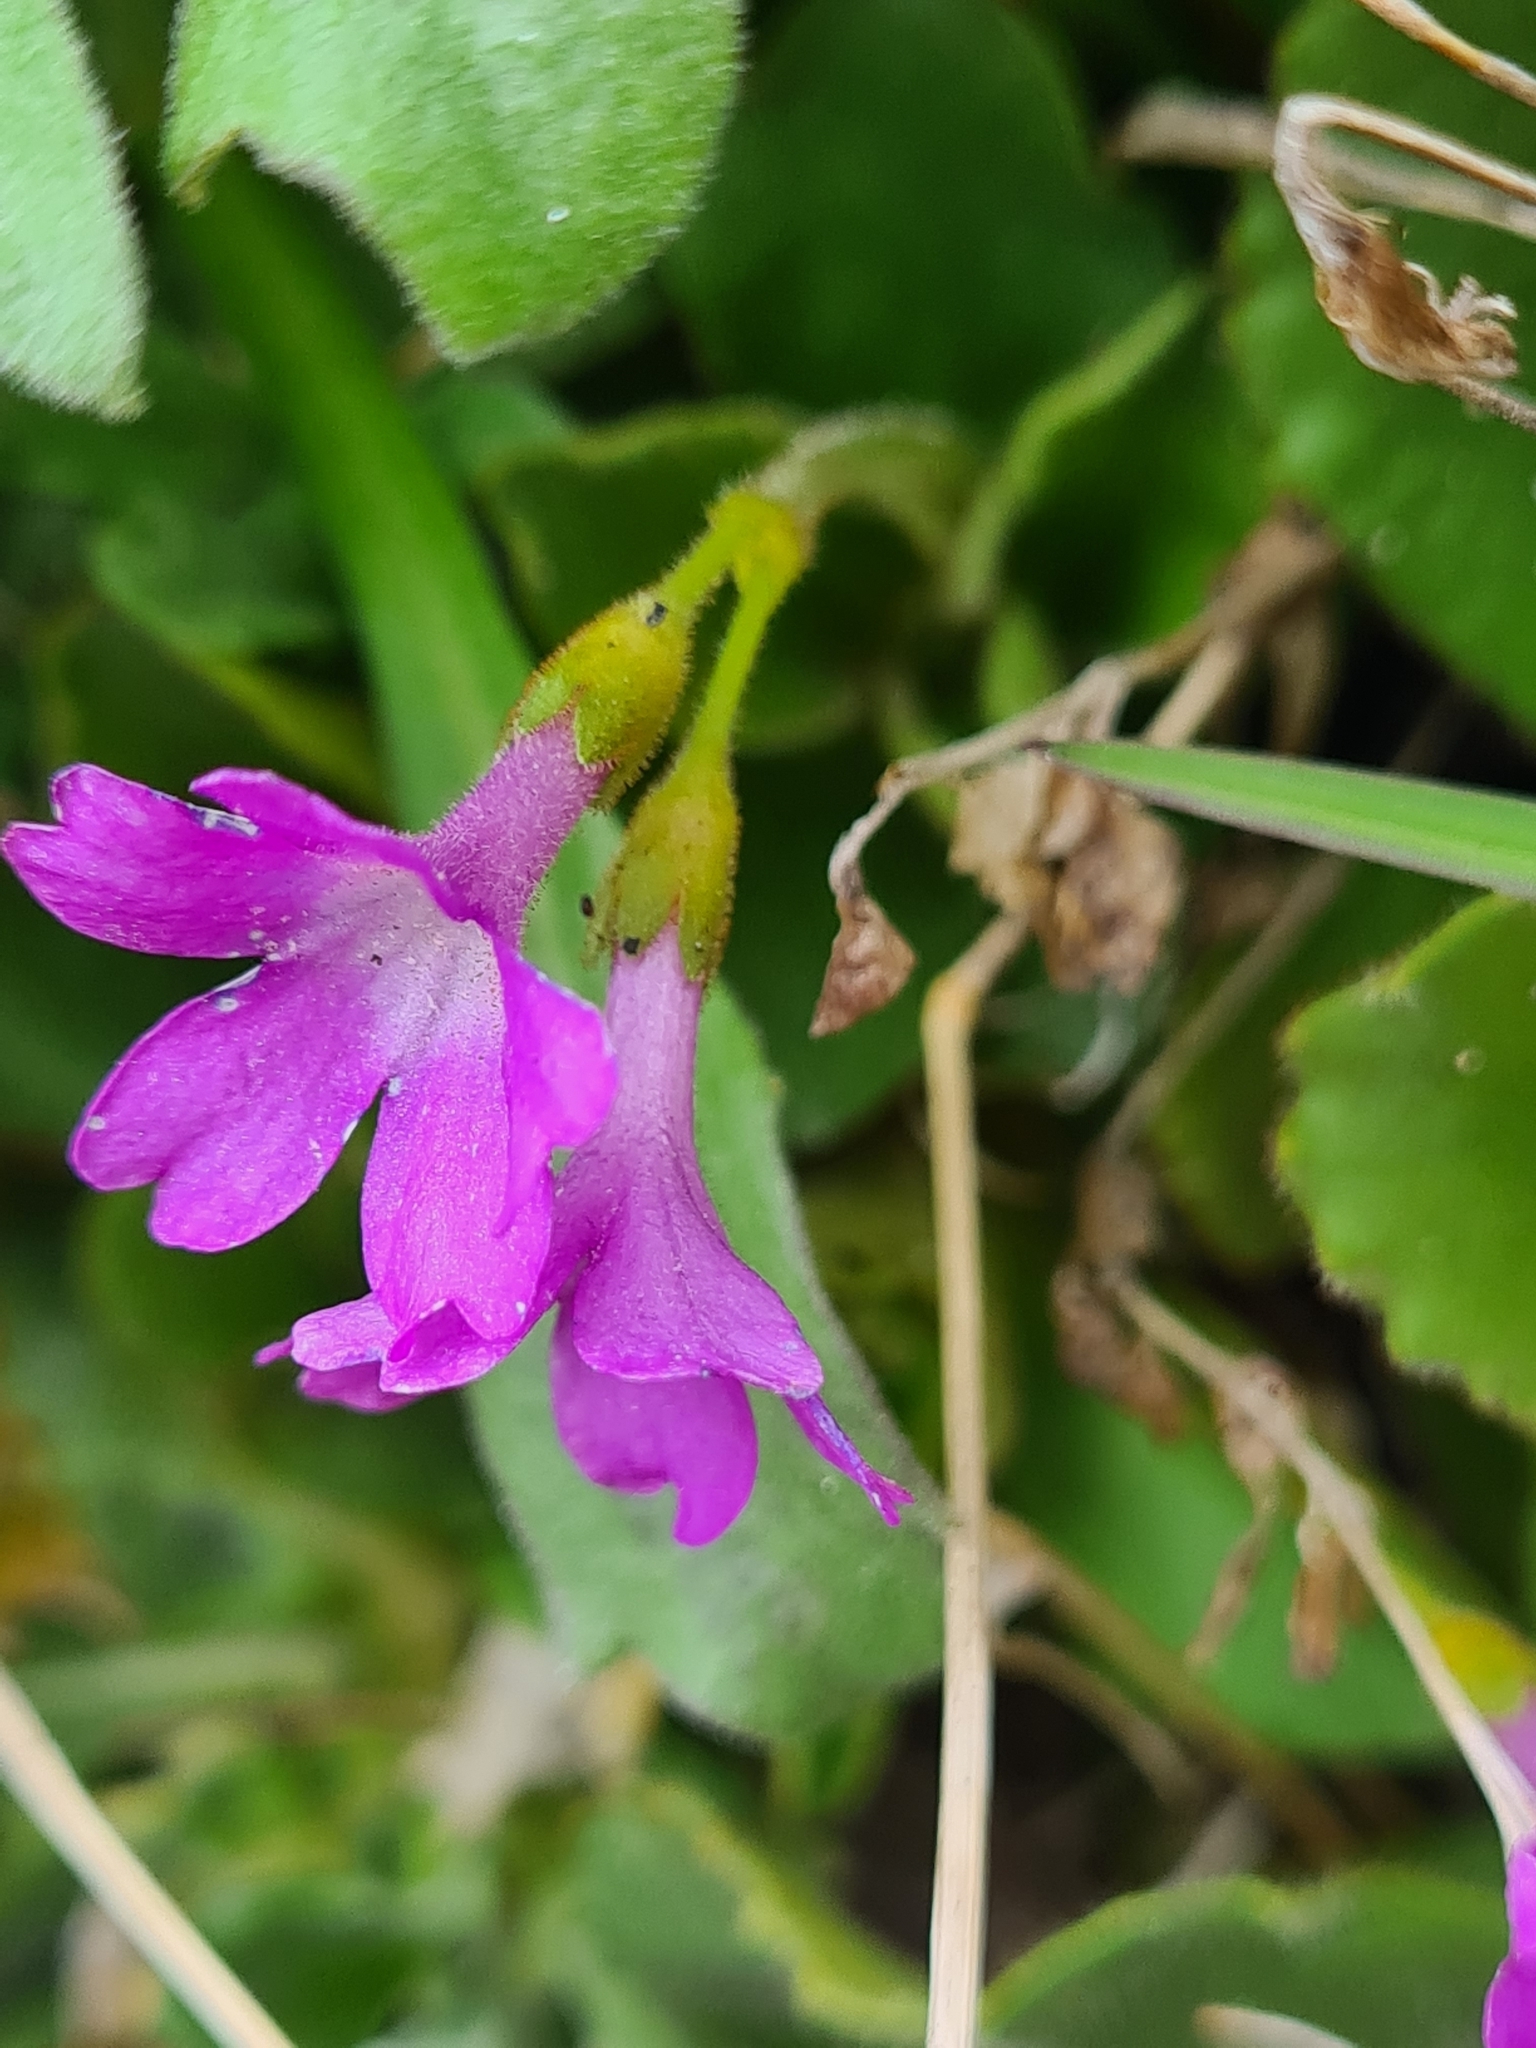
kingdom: Plantae
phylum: Tracheophyta
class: Magnoliopsida
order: Ericales
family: Primulaceae
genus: Primula
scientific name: Primula villosa
